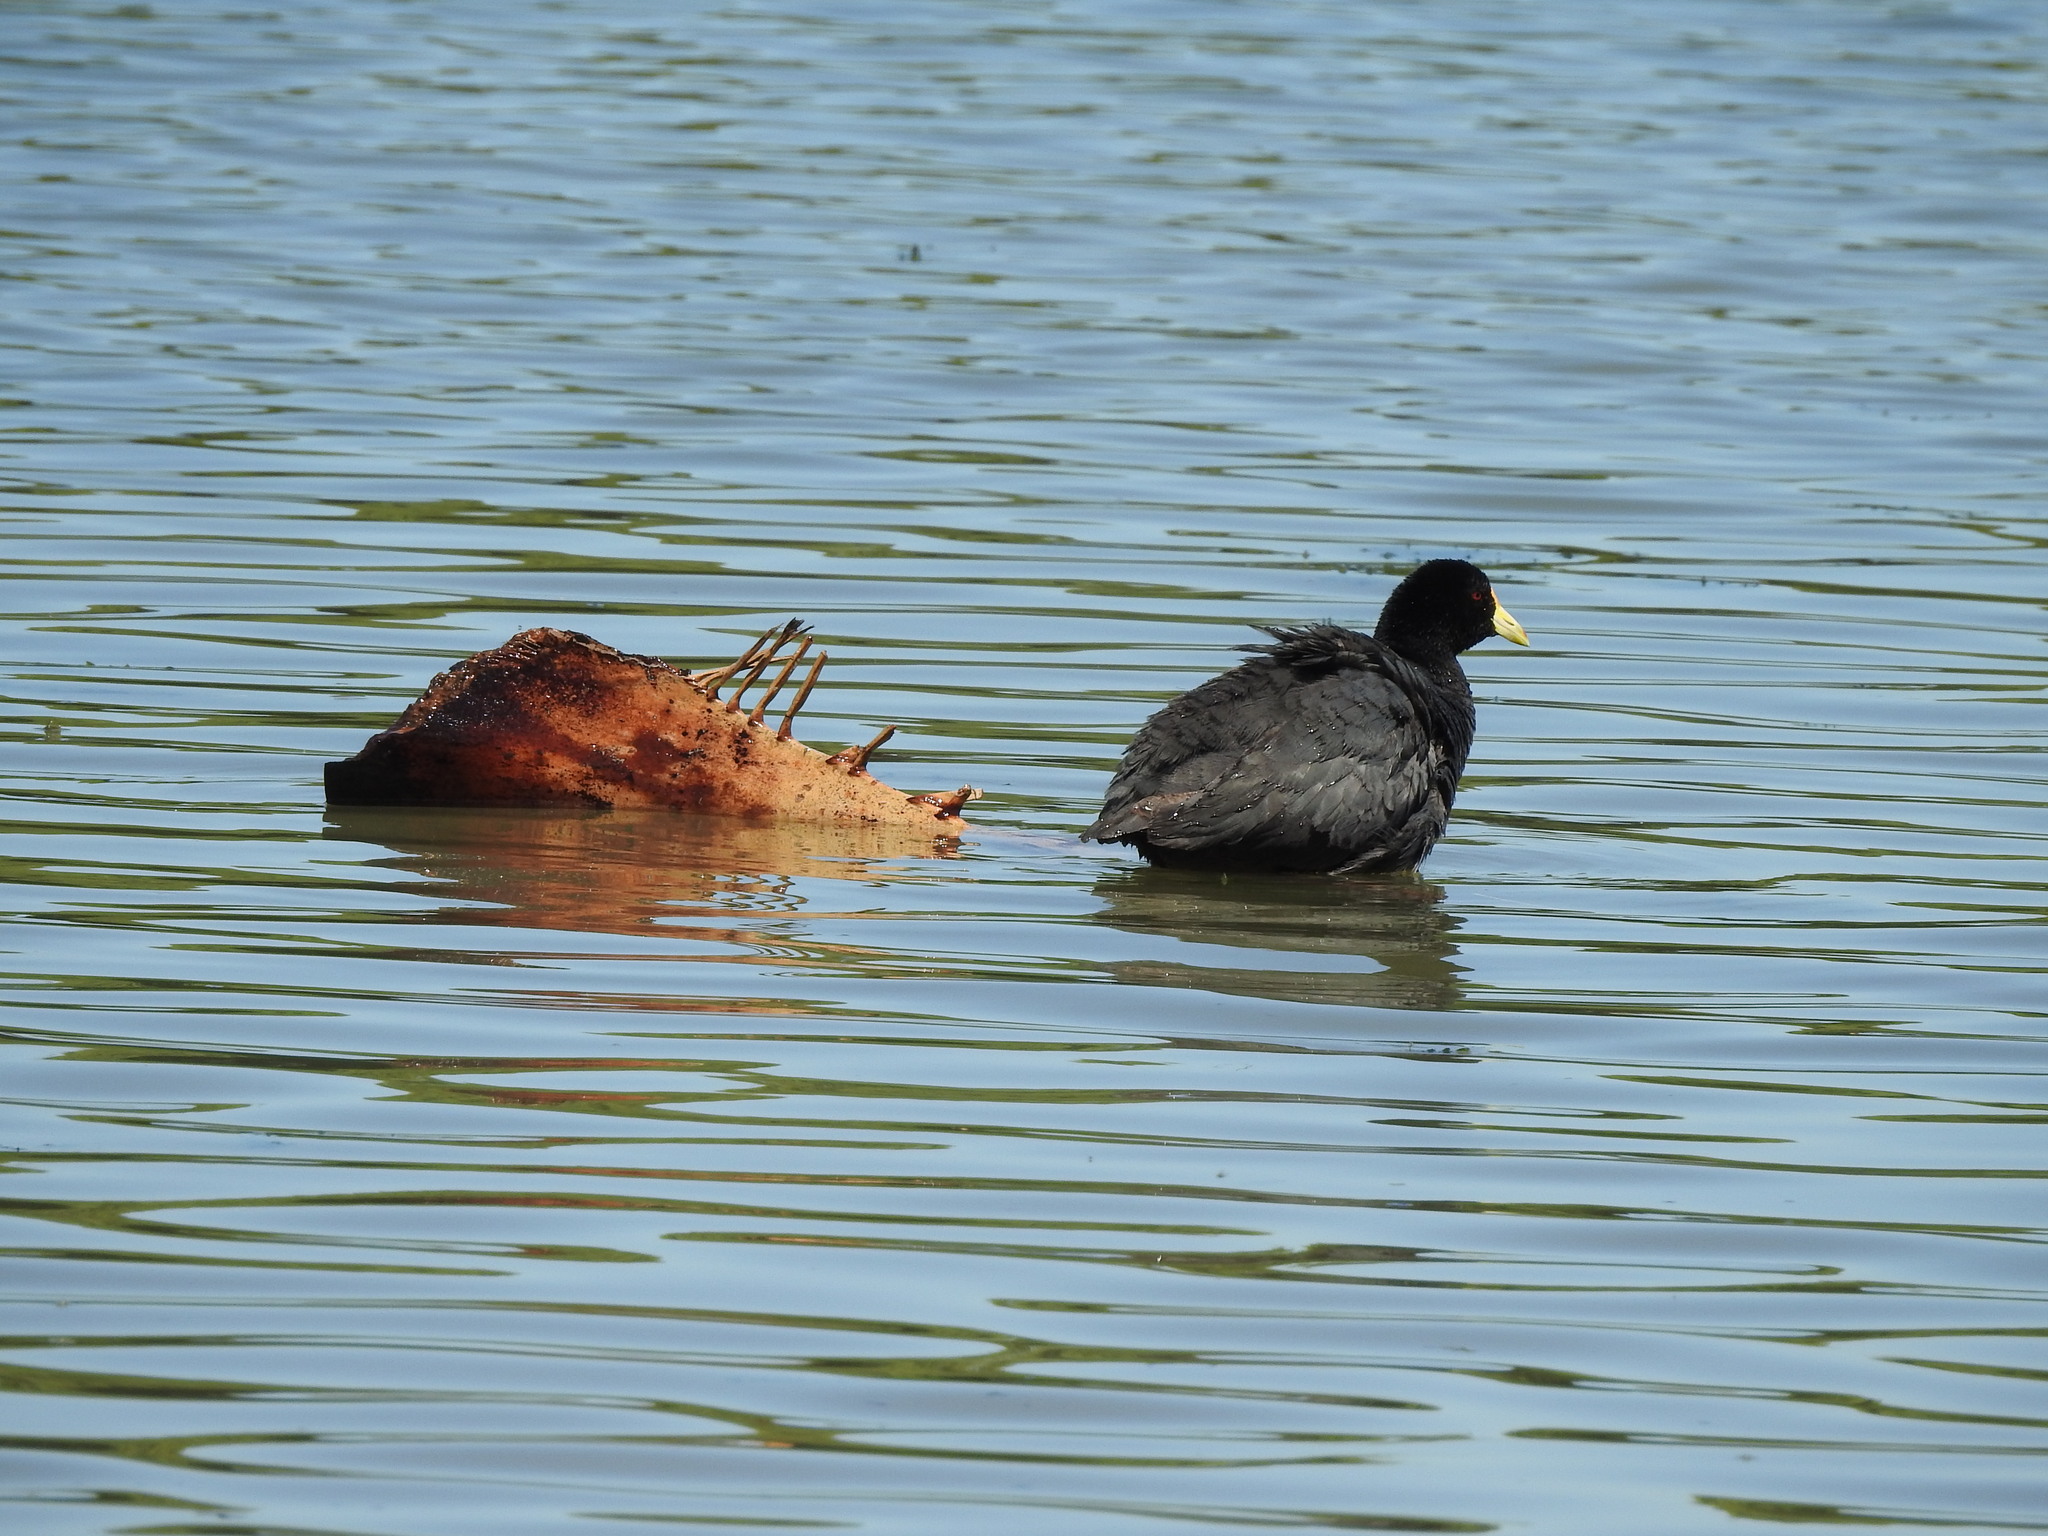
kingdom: Animalia
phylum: Chordata
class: Aves
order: Gruiformes
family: Rallidae
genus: Fulica
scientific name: Fulica leucoptera
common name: White-winged coot
